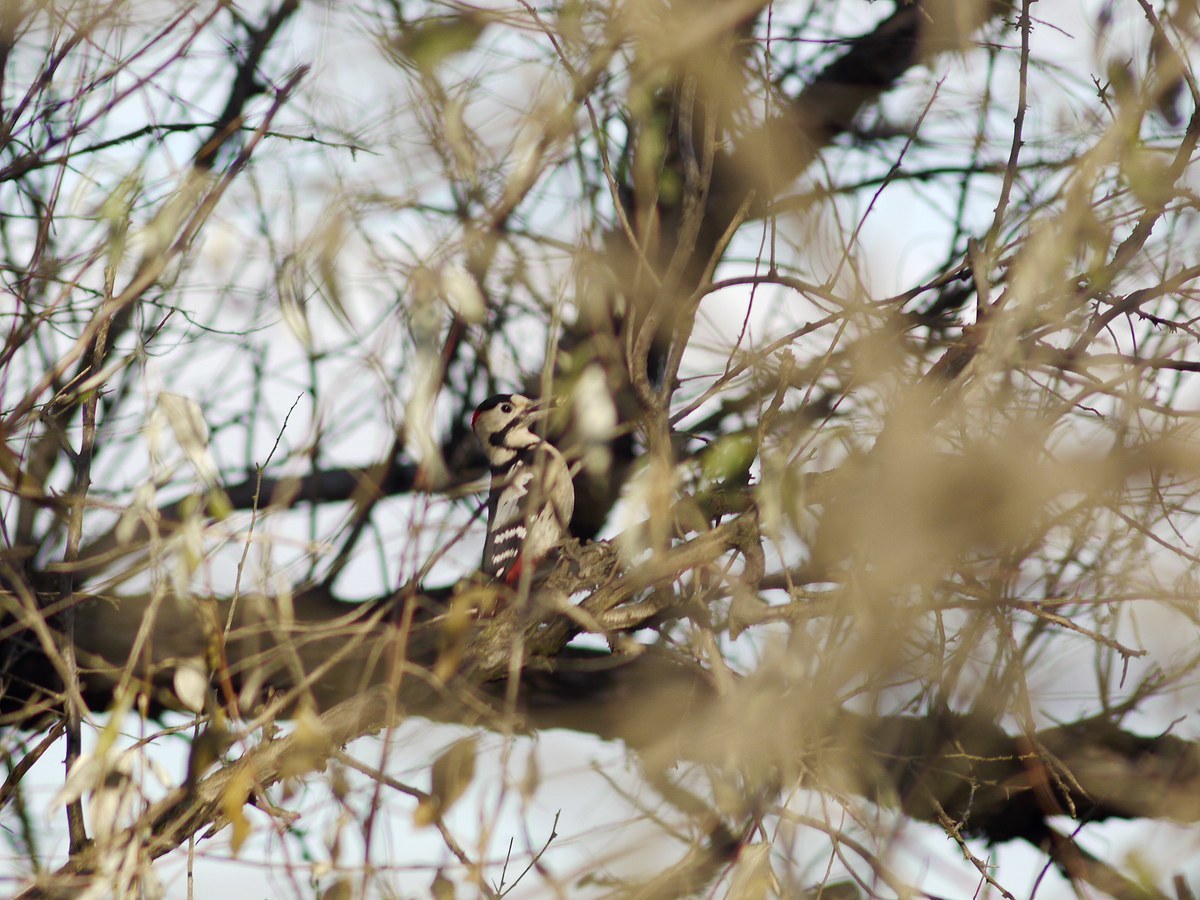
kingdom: Animalia
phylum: Chordata
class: Aves
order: Piciformes
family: Picidae
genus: Dendrocopos
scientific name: Dendrocopos syriacus
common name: Syrian woodpecker
